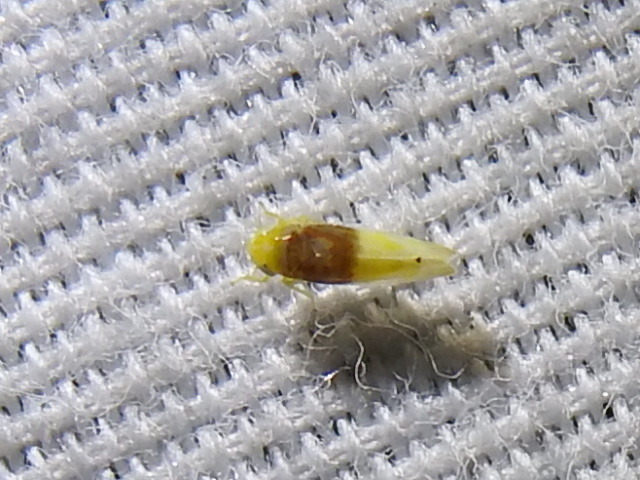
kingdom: Animalia
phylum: Arthropoda
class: Insecta
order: Hemiptera
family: Cicadellidae
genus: Eratoneura
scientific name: Eratoneura basilaris
